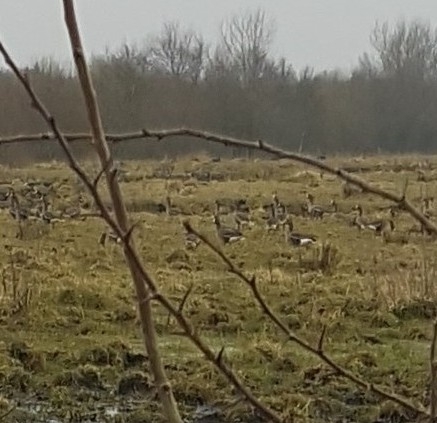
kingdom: Animalia
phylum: Chordata
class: Aves
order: Anseriformes
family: Anatidae
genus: Anser
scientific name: Anser albifrons
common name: Greater white-fronted goose
